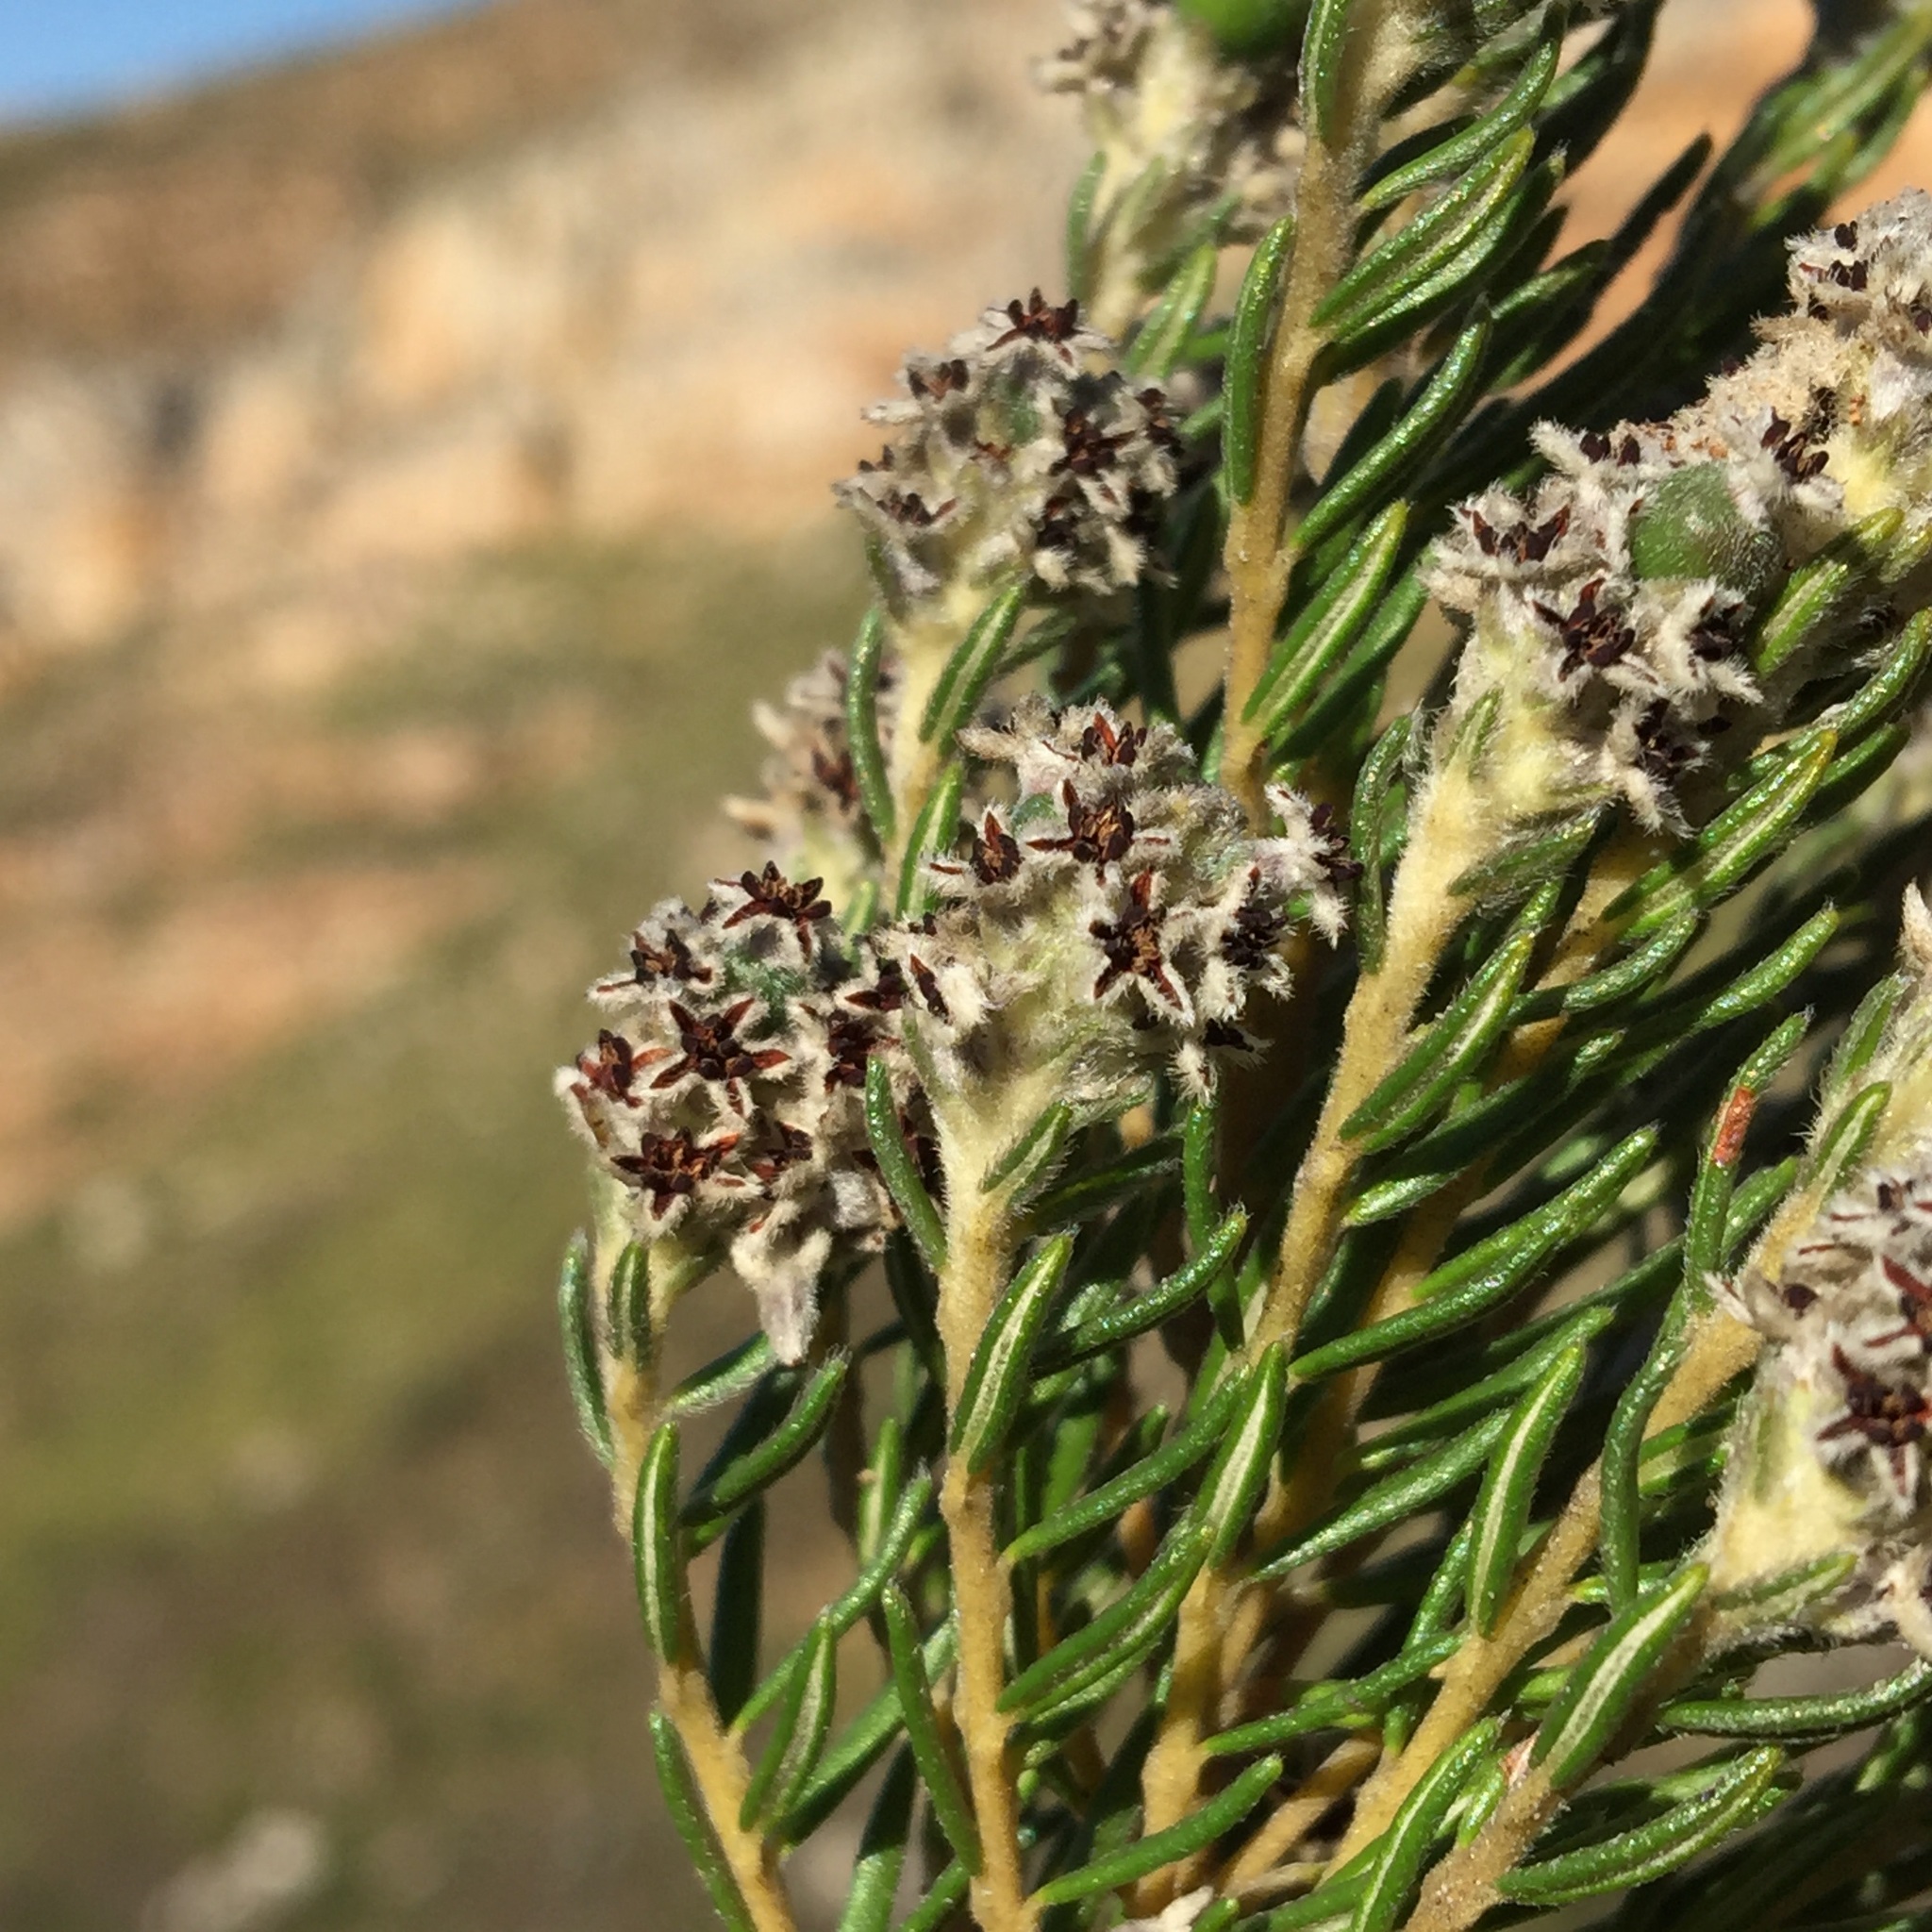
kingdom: Plantae
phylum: Tracheophyta
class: Magnoliopsida
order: Rosales
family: Rhamnaceae
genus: Phylica
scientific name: Phylica imberbis
